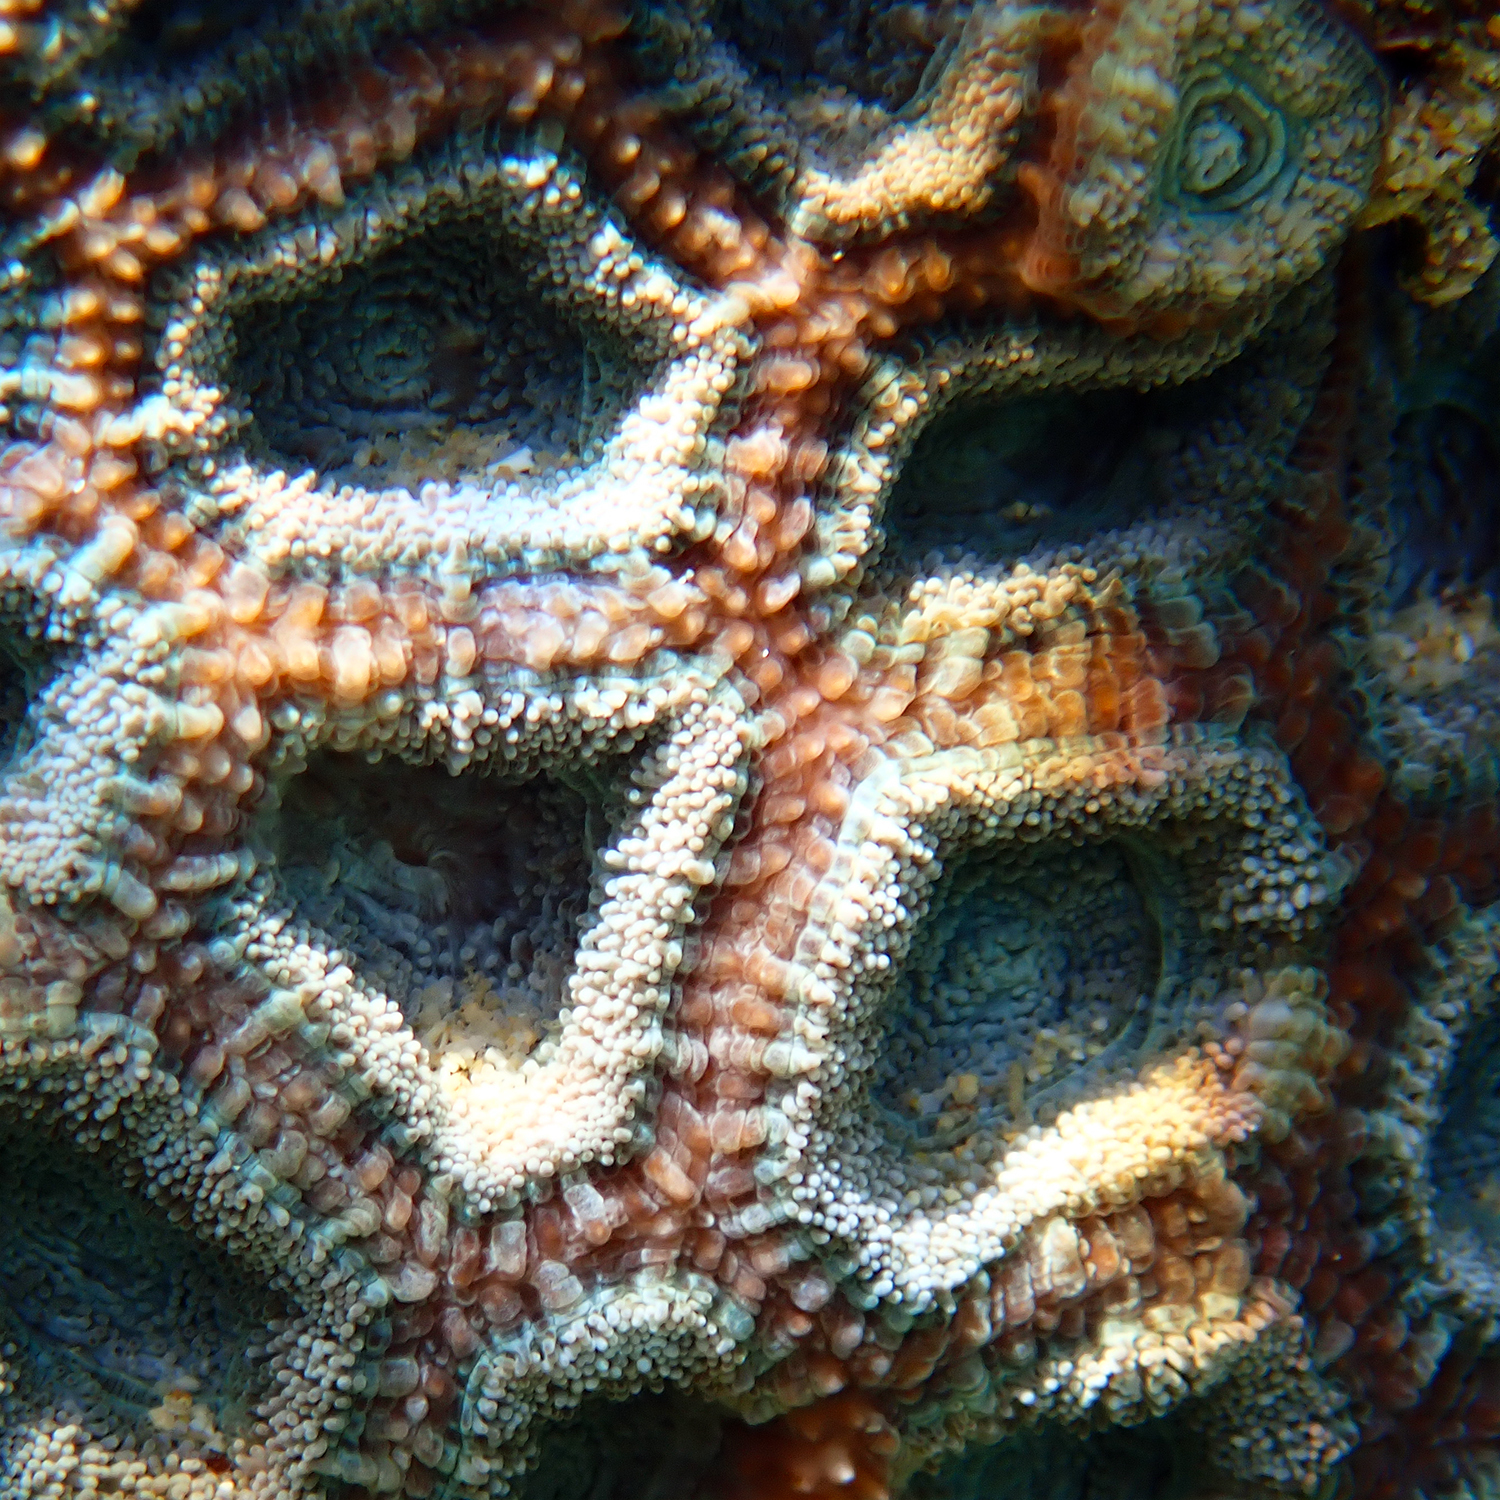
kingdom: Animalia
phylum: Cnidaria
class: Anthozoa
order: Scleractinia
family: Lobophylliidae
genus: Micromussa
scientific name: Micromussa lordhowensis
